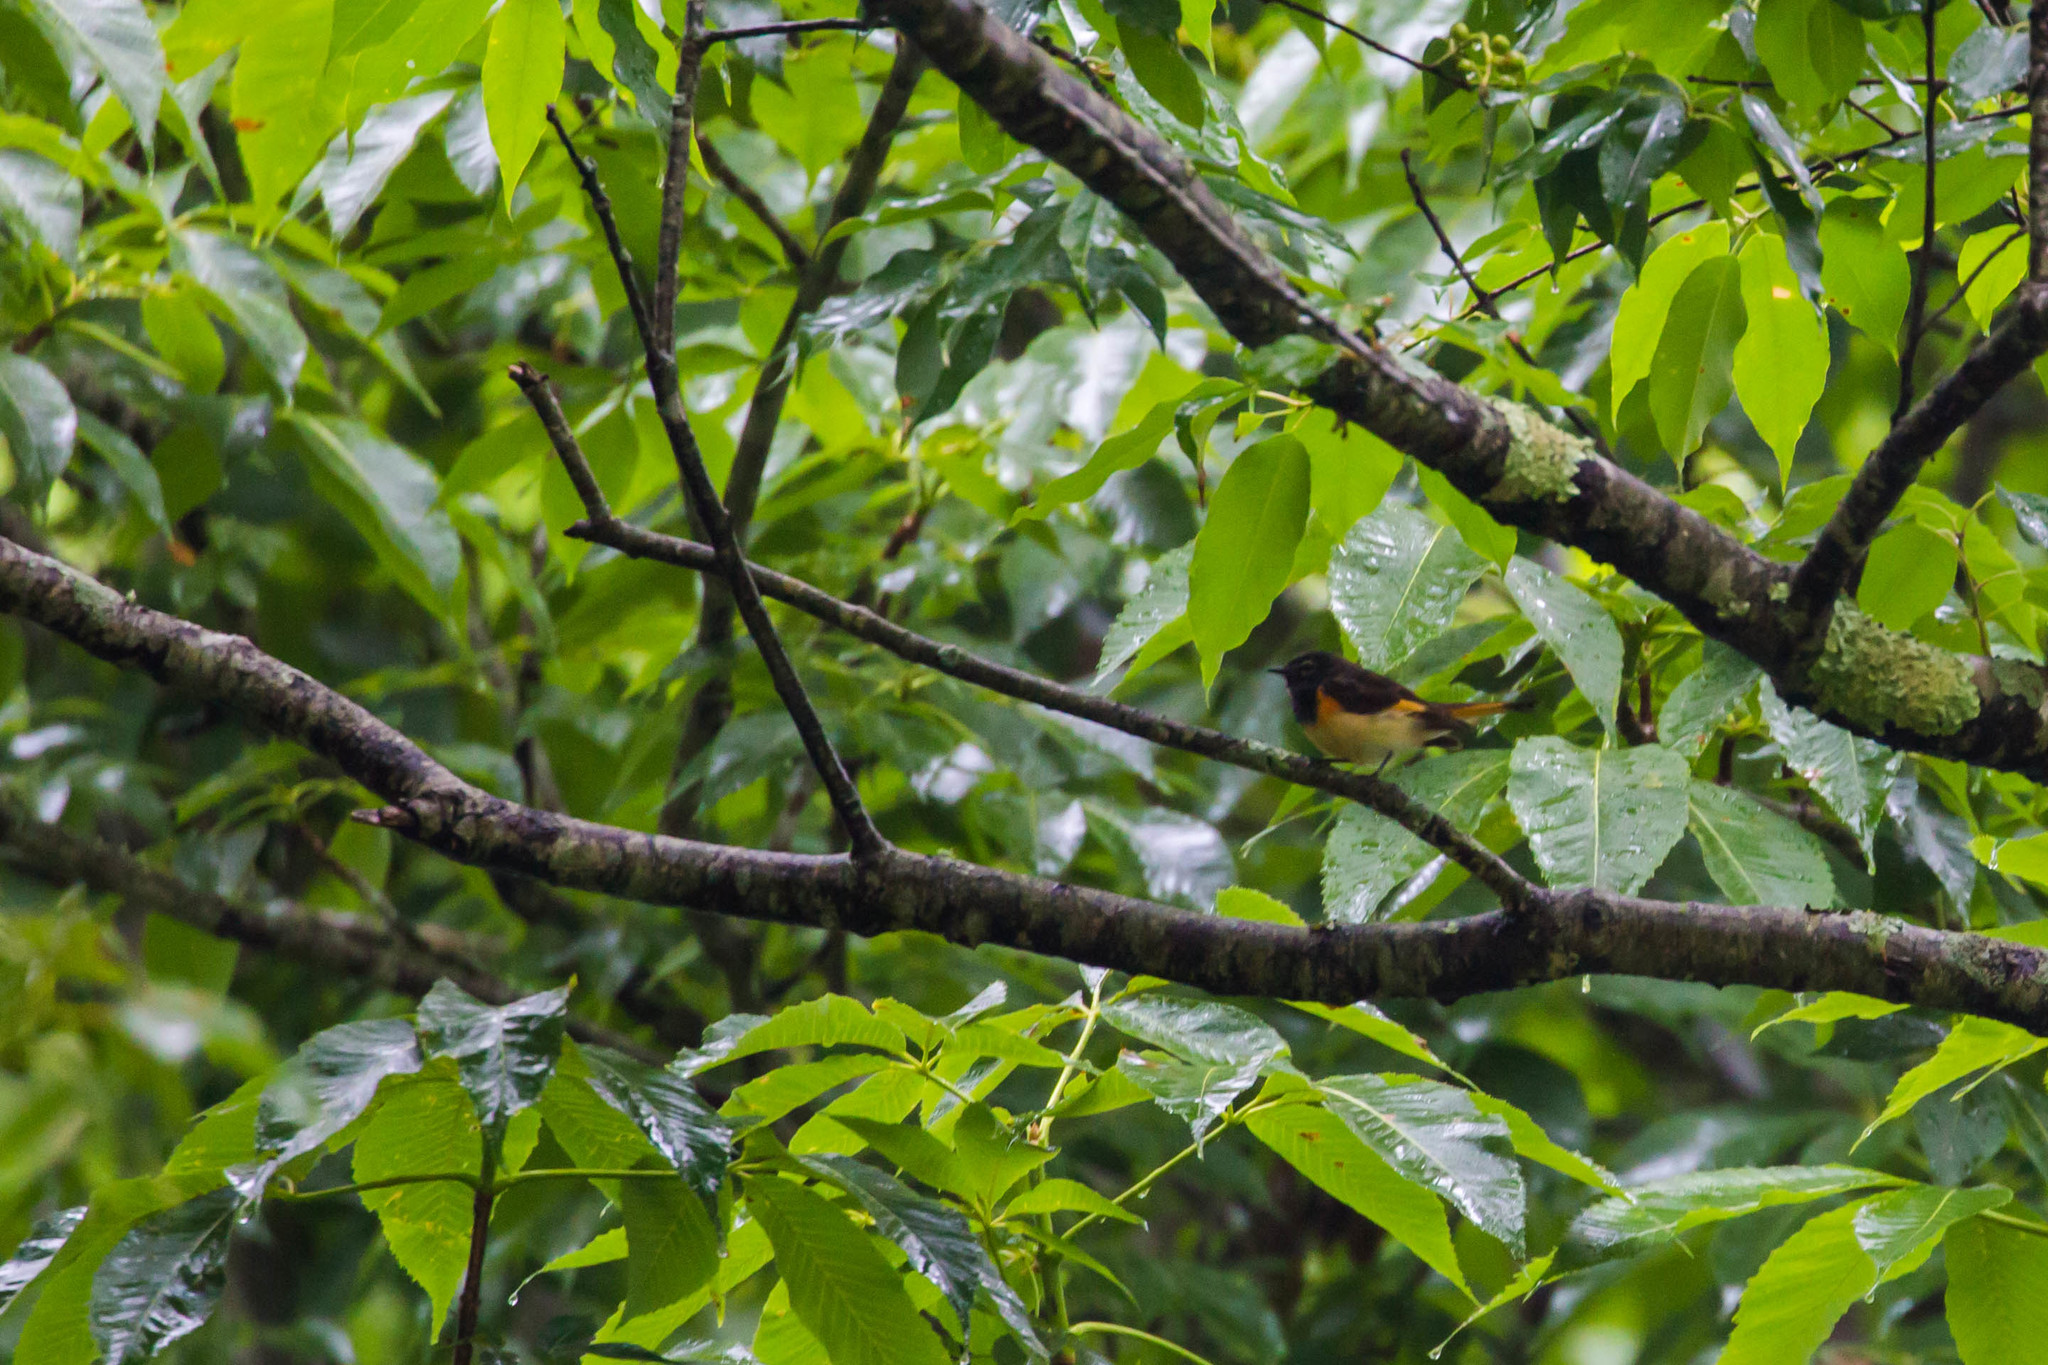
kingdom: Animalia
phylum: Chordata
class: Aves
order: Passeriformes
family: Parulidae
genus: Setophaga
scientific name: Setophaga ruticilla
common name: American redstart
